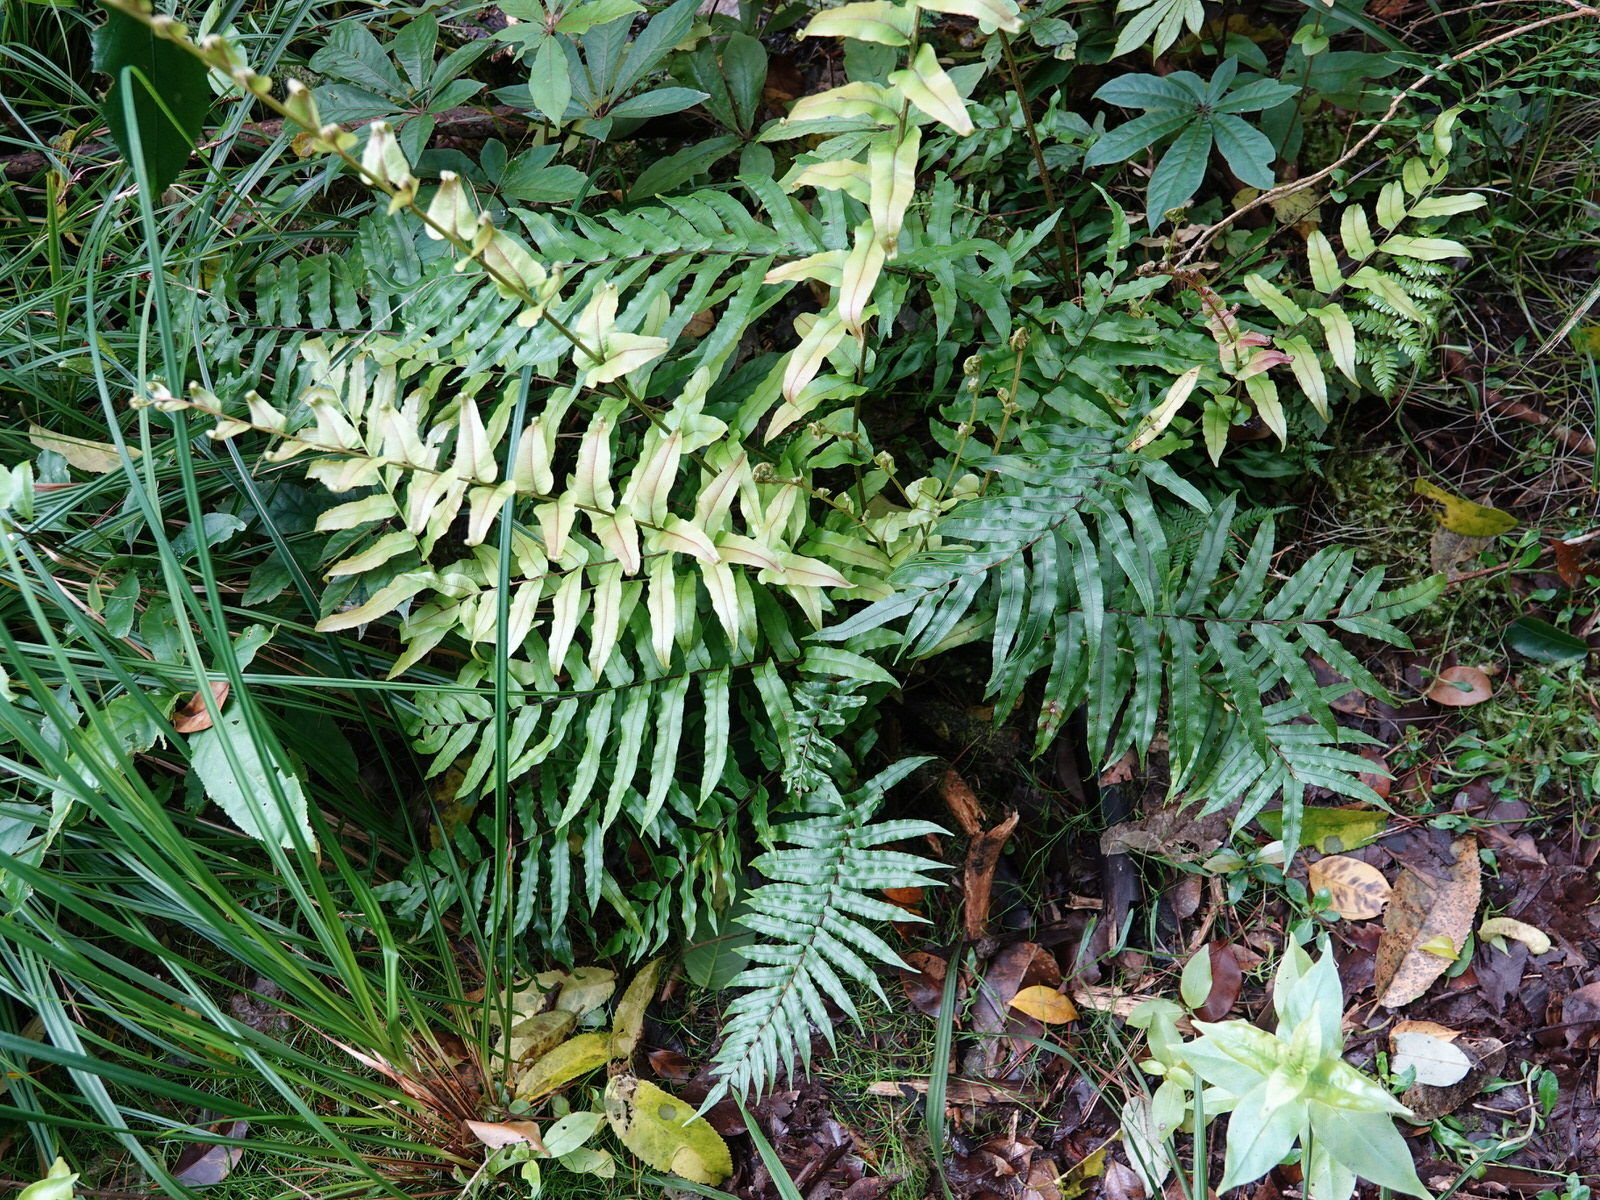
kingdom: Plantae
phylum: Tracheophyta
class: Polypodiopsida
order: Polypodiales
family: Blechnaceae
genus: Parablechnum
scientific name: Parablechnum minus
